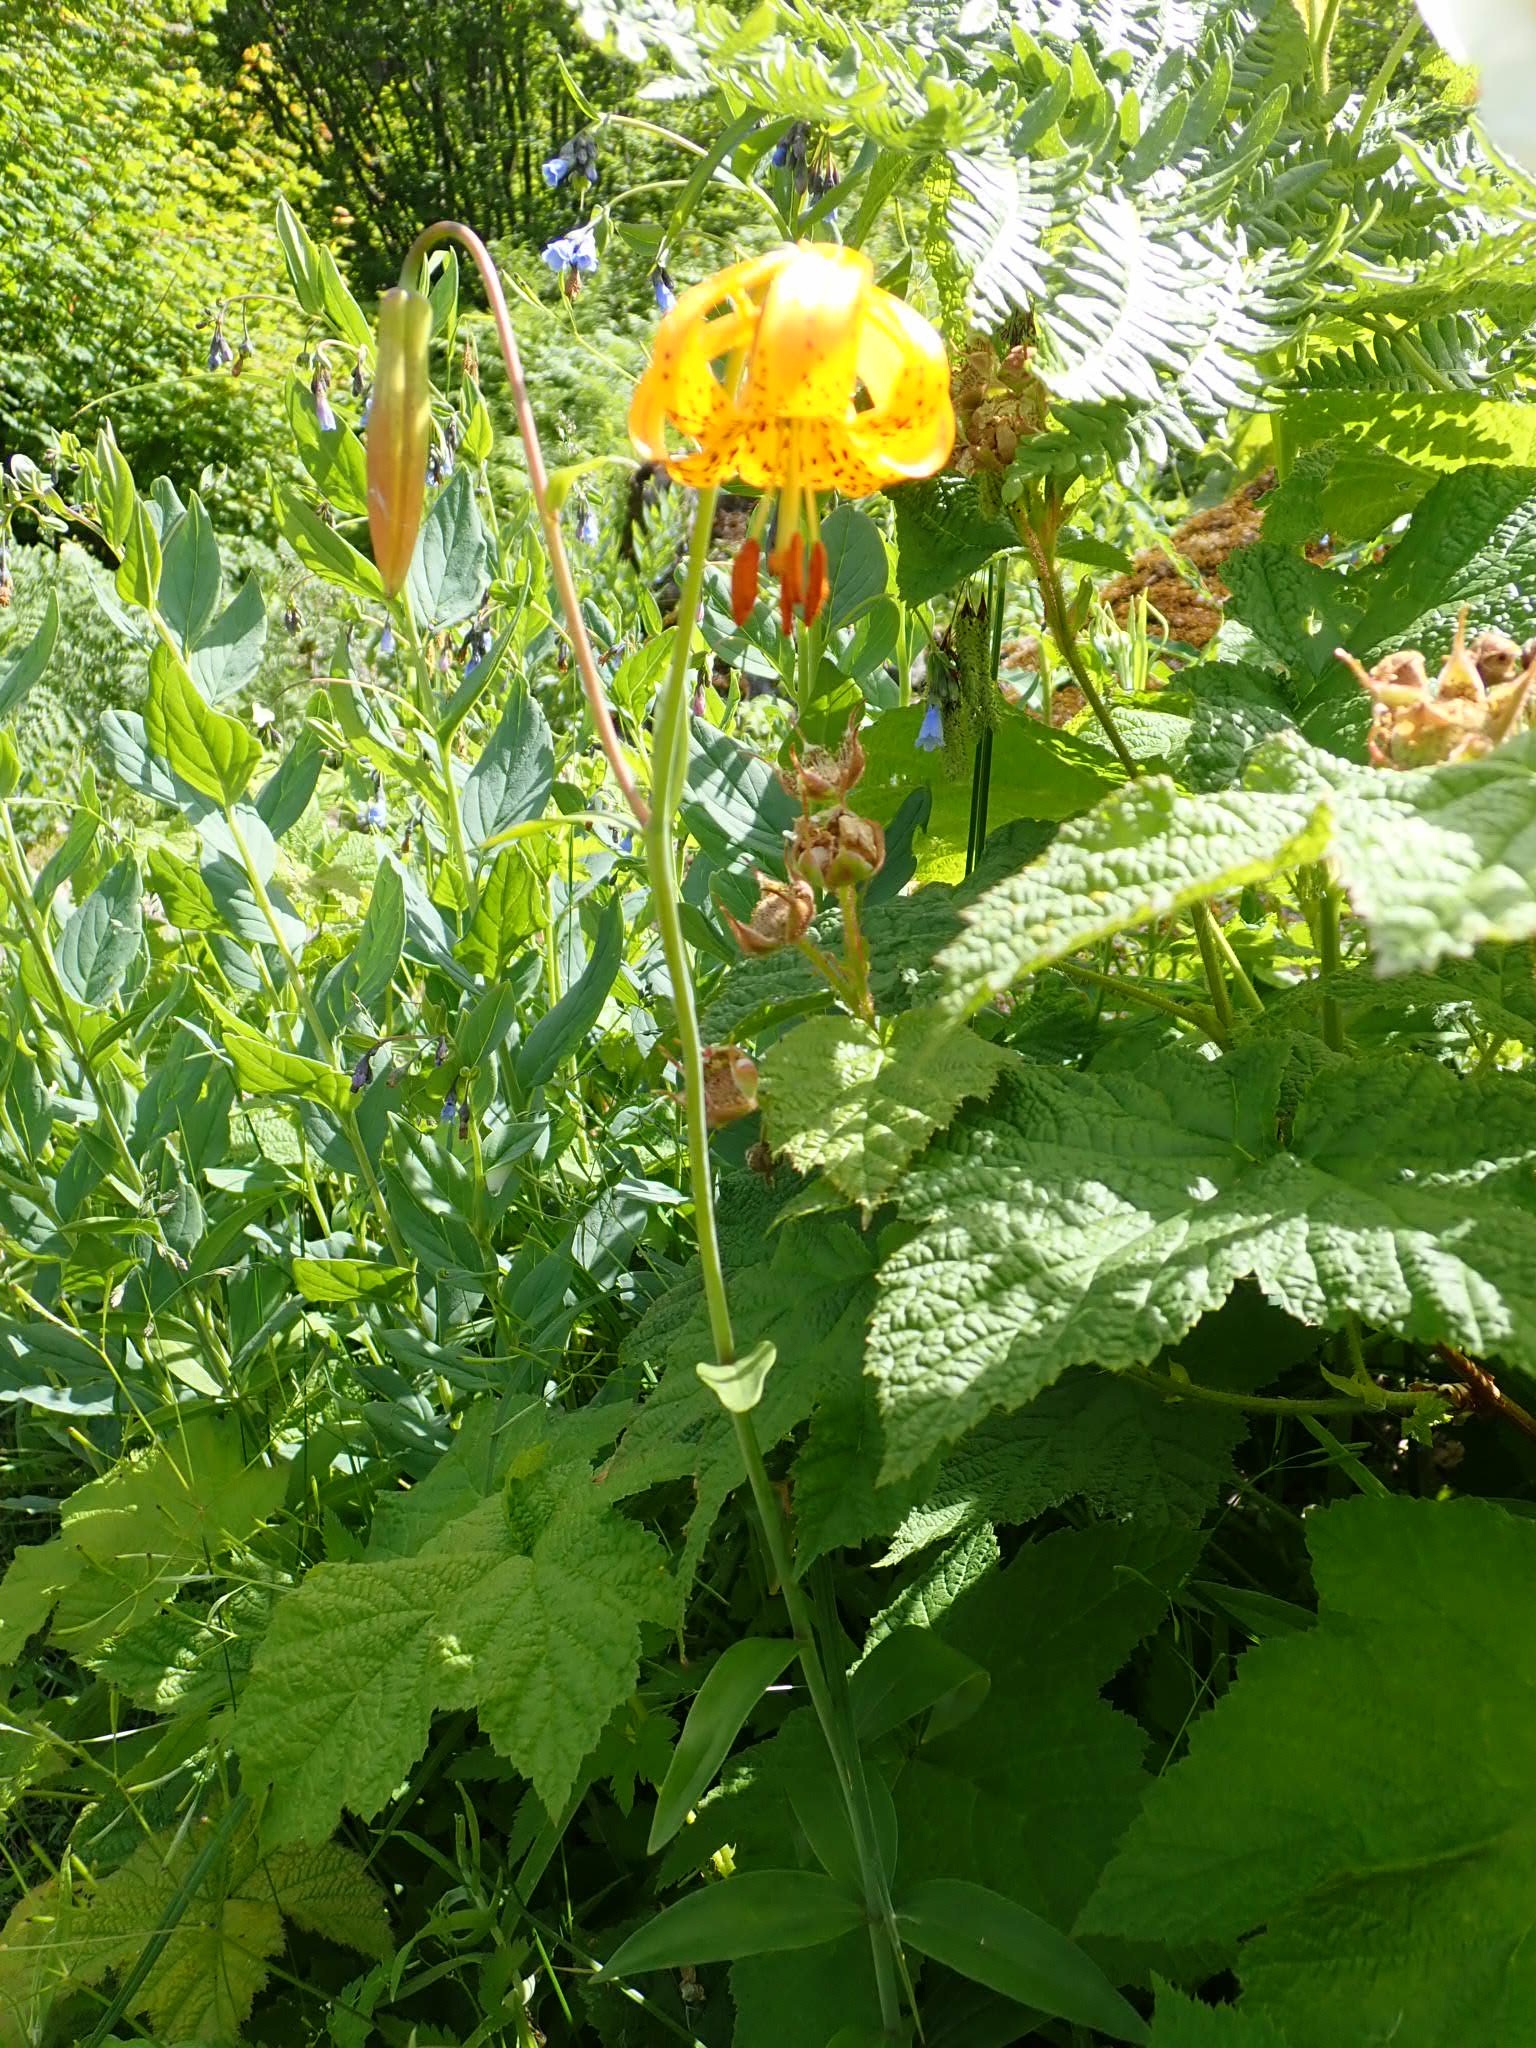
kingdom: Plantae
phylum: Tracheophyta
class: Liliopsida
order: Liliales
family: Liliaceae
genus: Lilium
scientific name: Lilium columbianum
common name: Columbia lily
